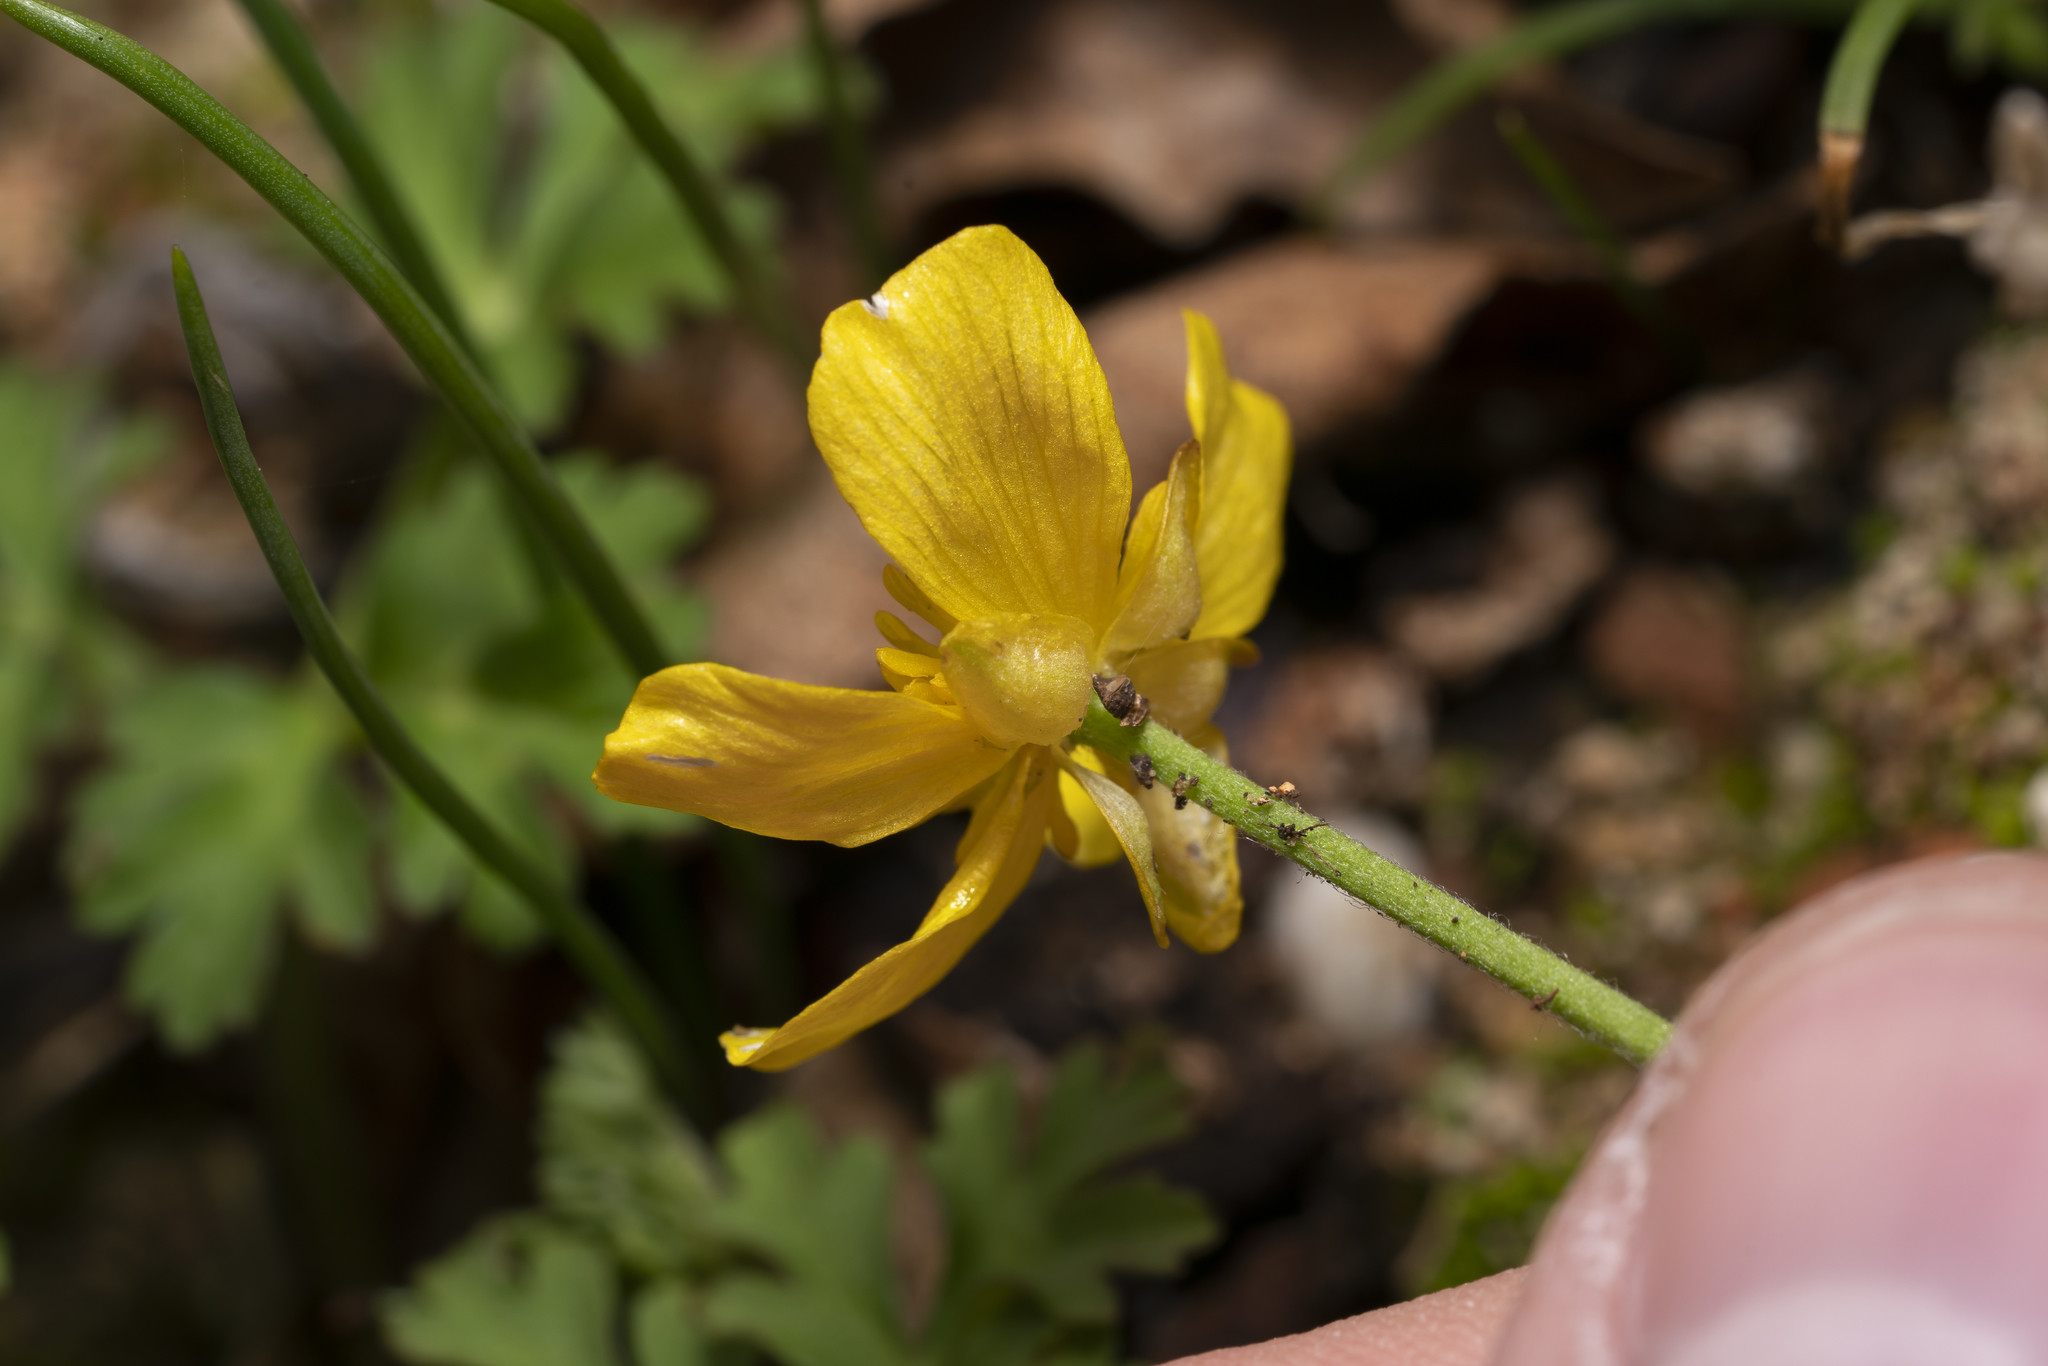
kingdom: Plantae
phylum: Tracheophyta
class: Magnoliopsida
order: Ranunculales
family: Ranunculaceae
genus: Ranunculus
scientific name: Ranunculus bullatus
